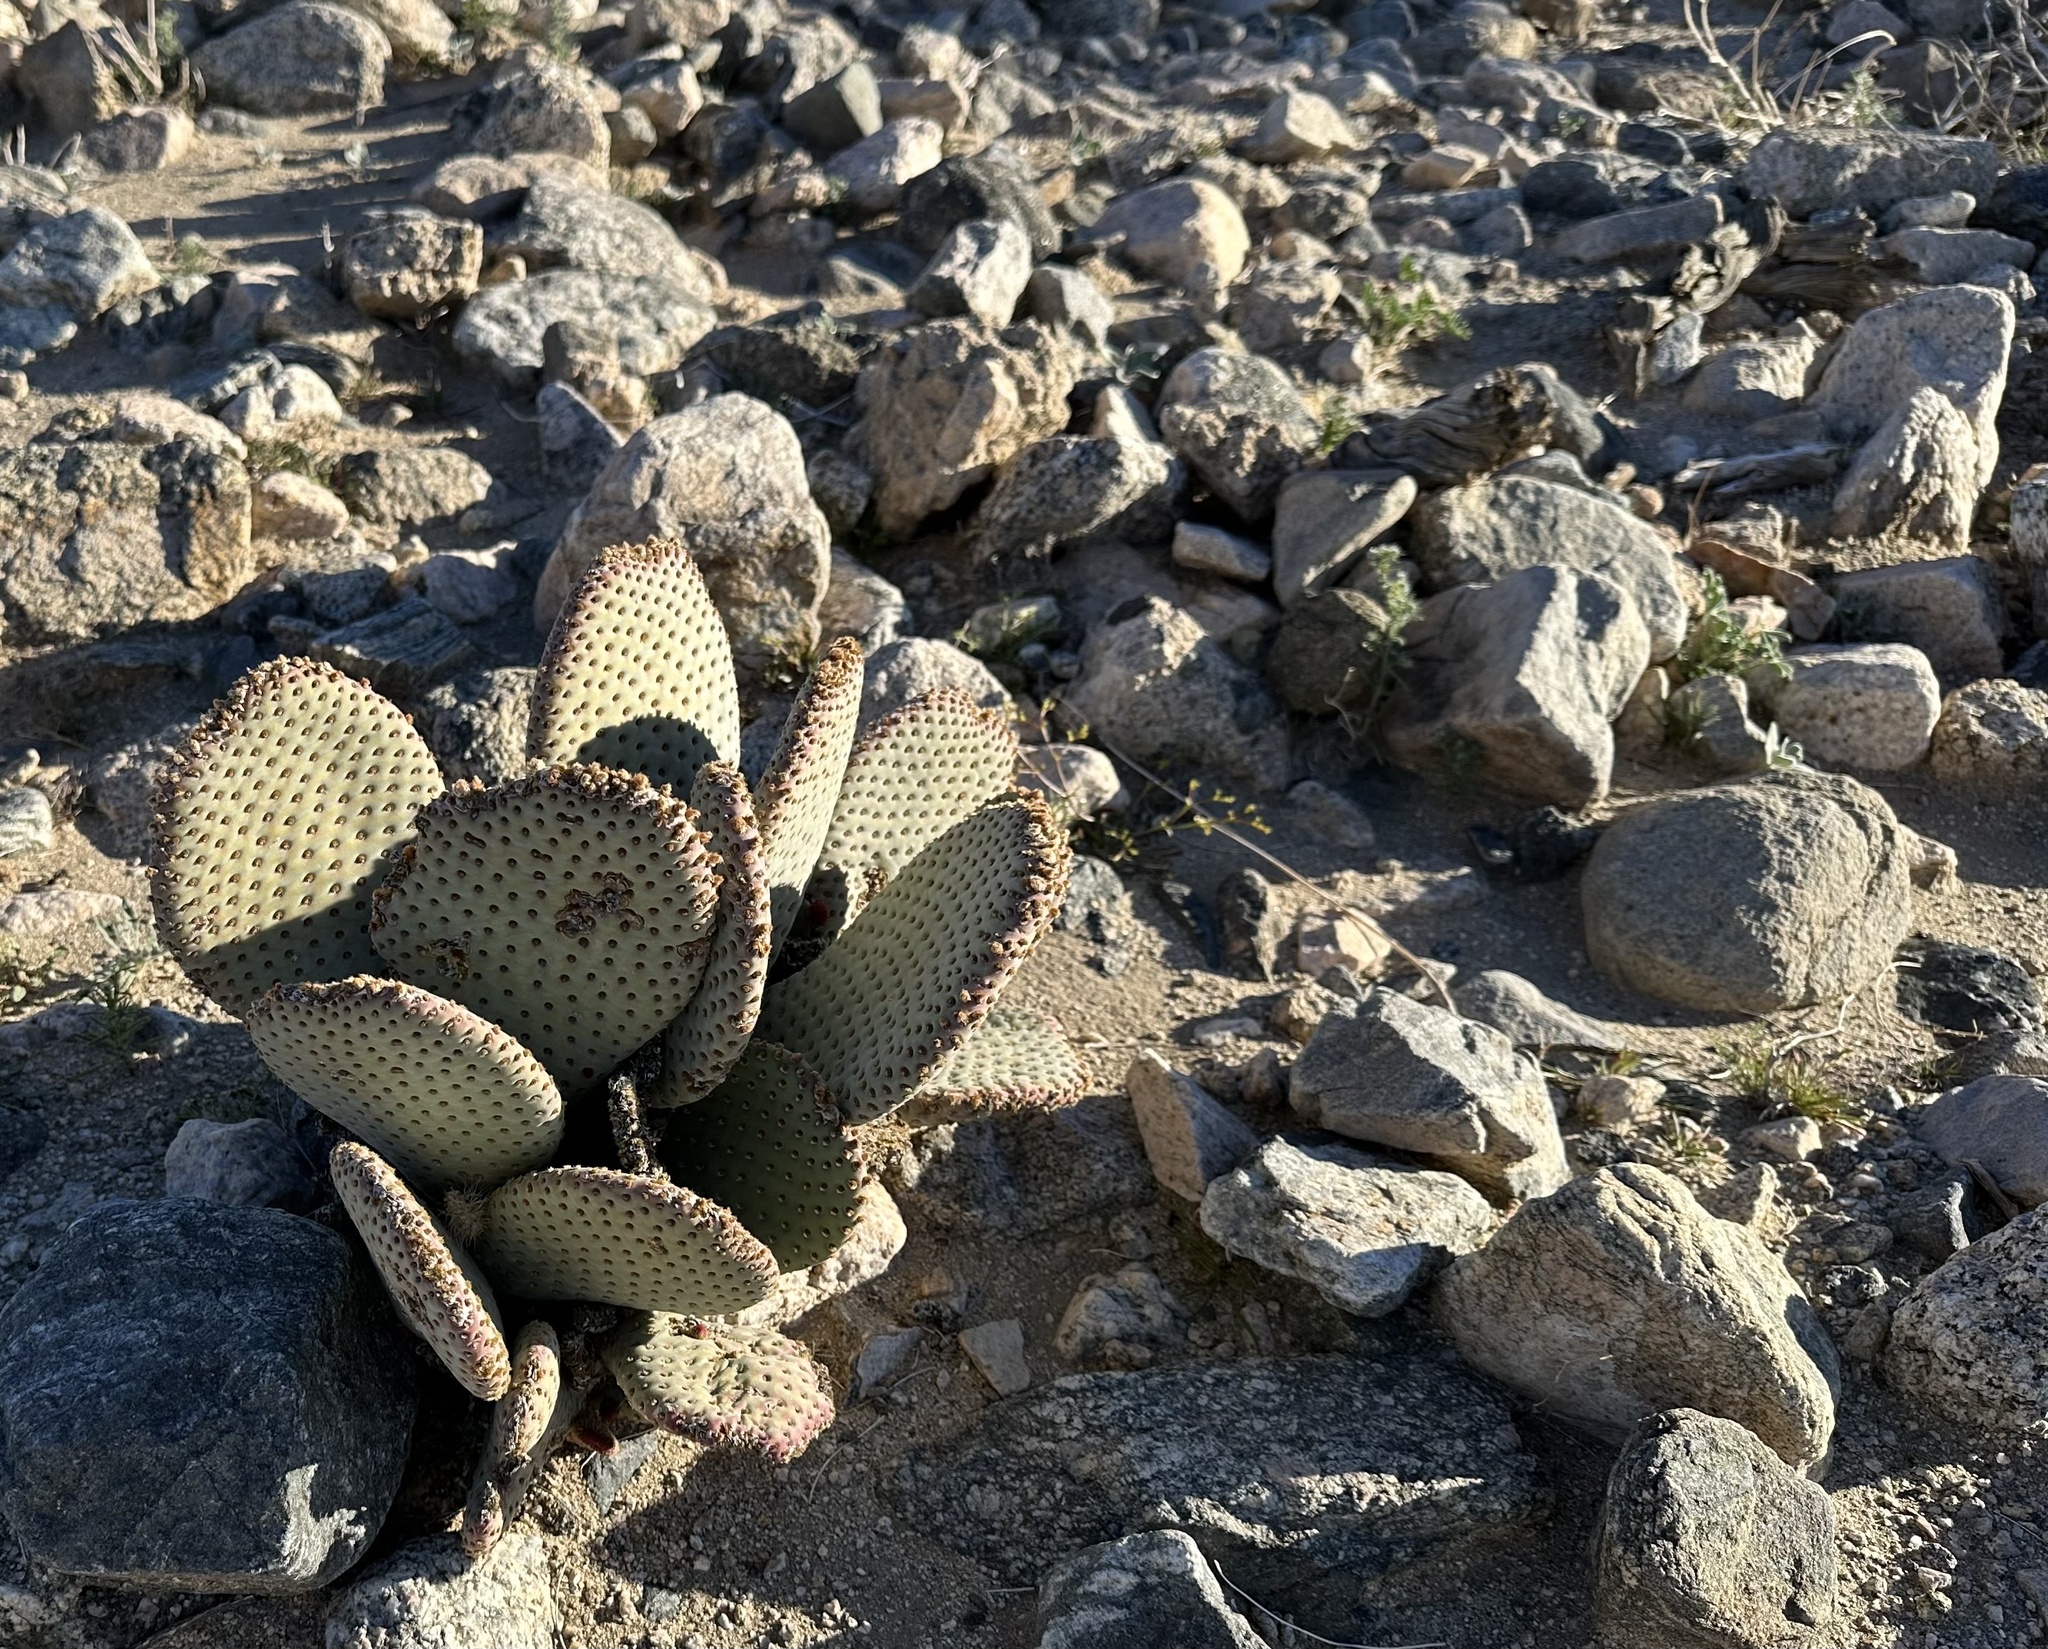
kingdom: Plantae
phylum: Tracheophyta
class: Magnoliopsida
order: Caryophyllales
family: Cactaceae
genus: Opuntia
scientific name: Opuntia basilaris
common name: Beavertail prickly-pear
